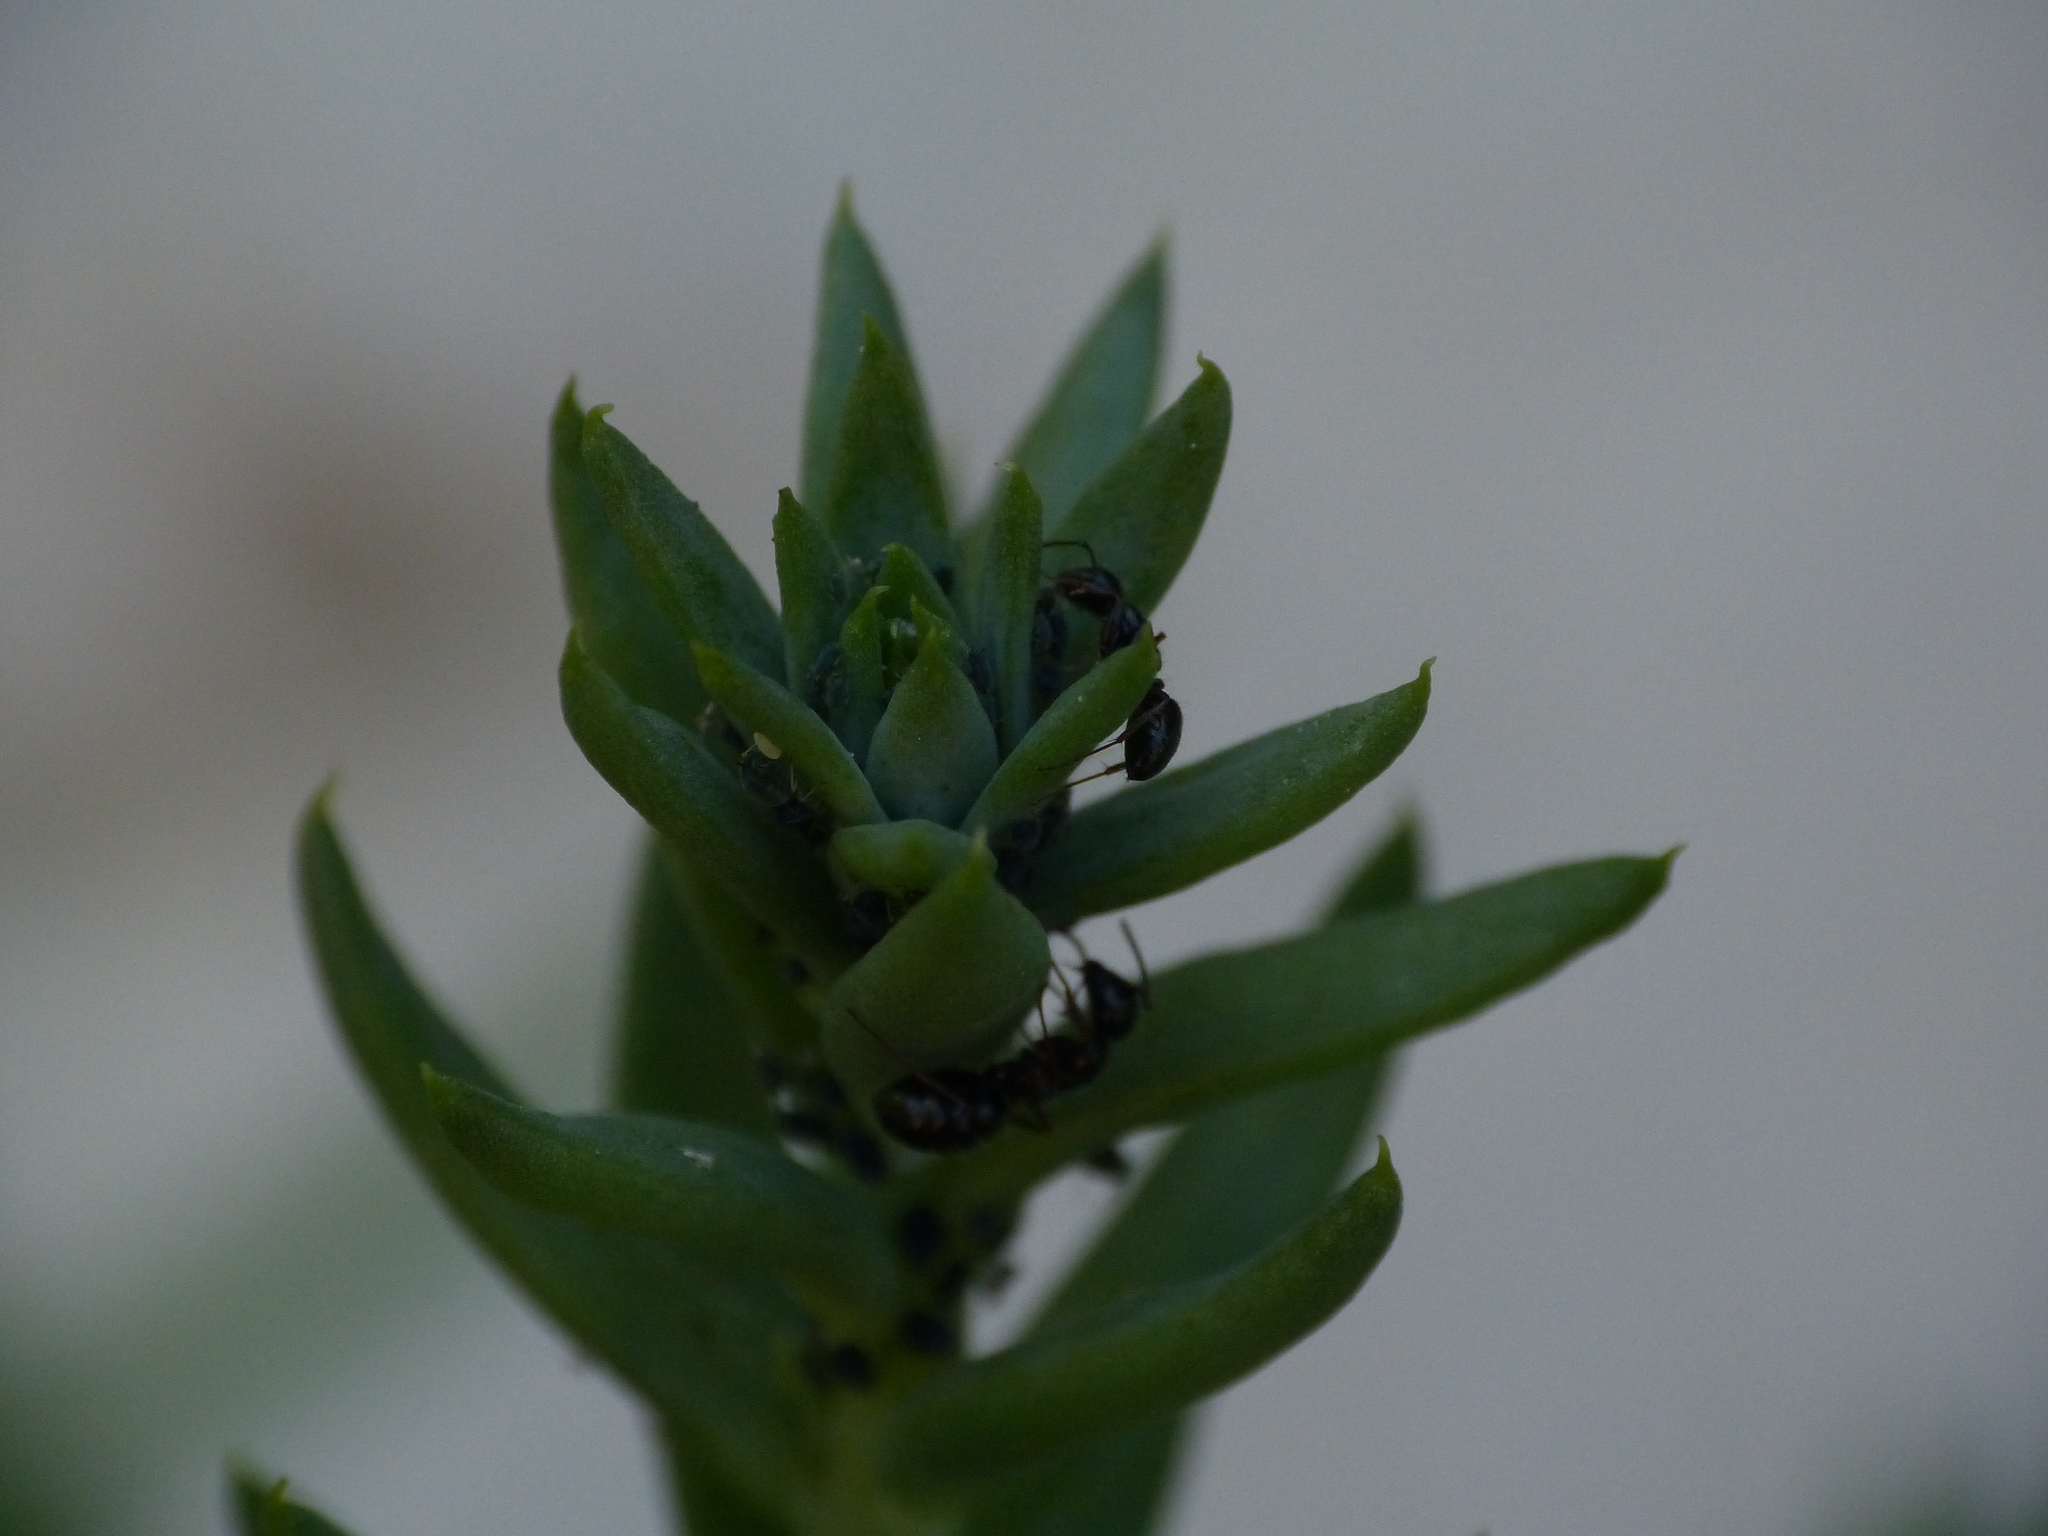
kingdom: Animalia
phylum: Arthropoda
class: Insecta
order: Hymenoptera
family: Formicidae
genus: Camponotus
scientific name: Camponotus piceus
